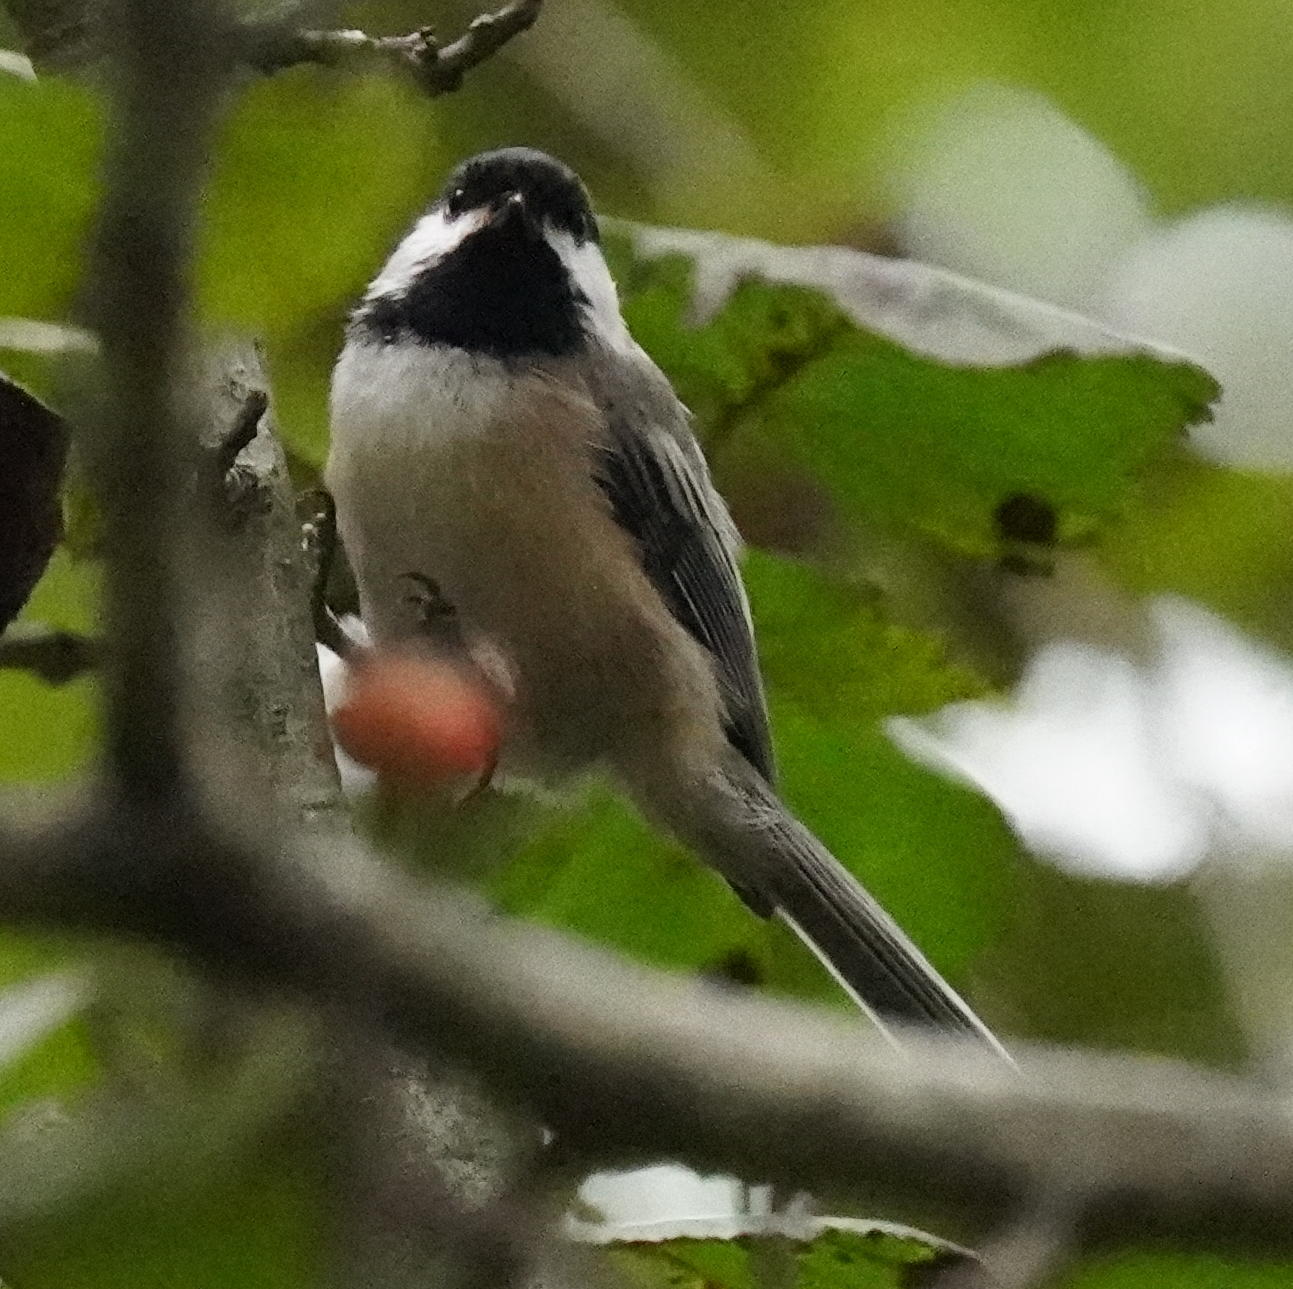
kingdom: Animalia
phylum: Chordata
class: Aves
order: Passeriformes
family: Paridae
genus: Poecile
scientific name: Poecile atricapillus
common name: Black-capped chickadee
